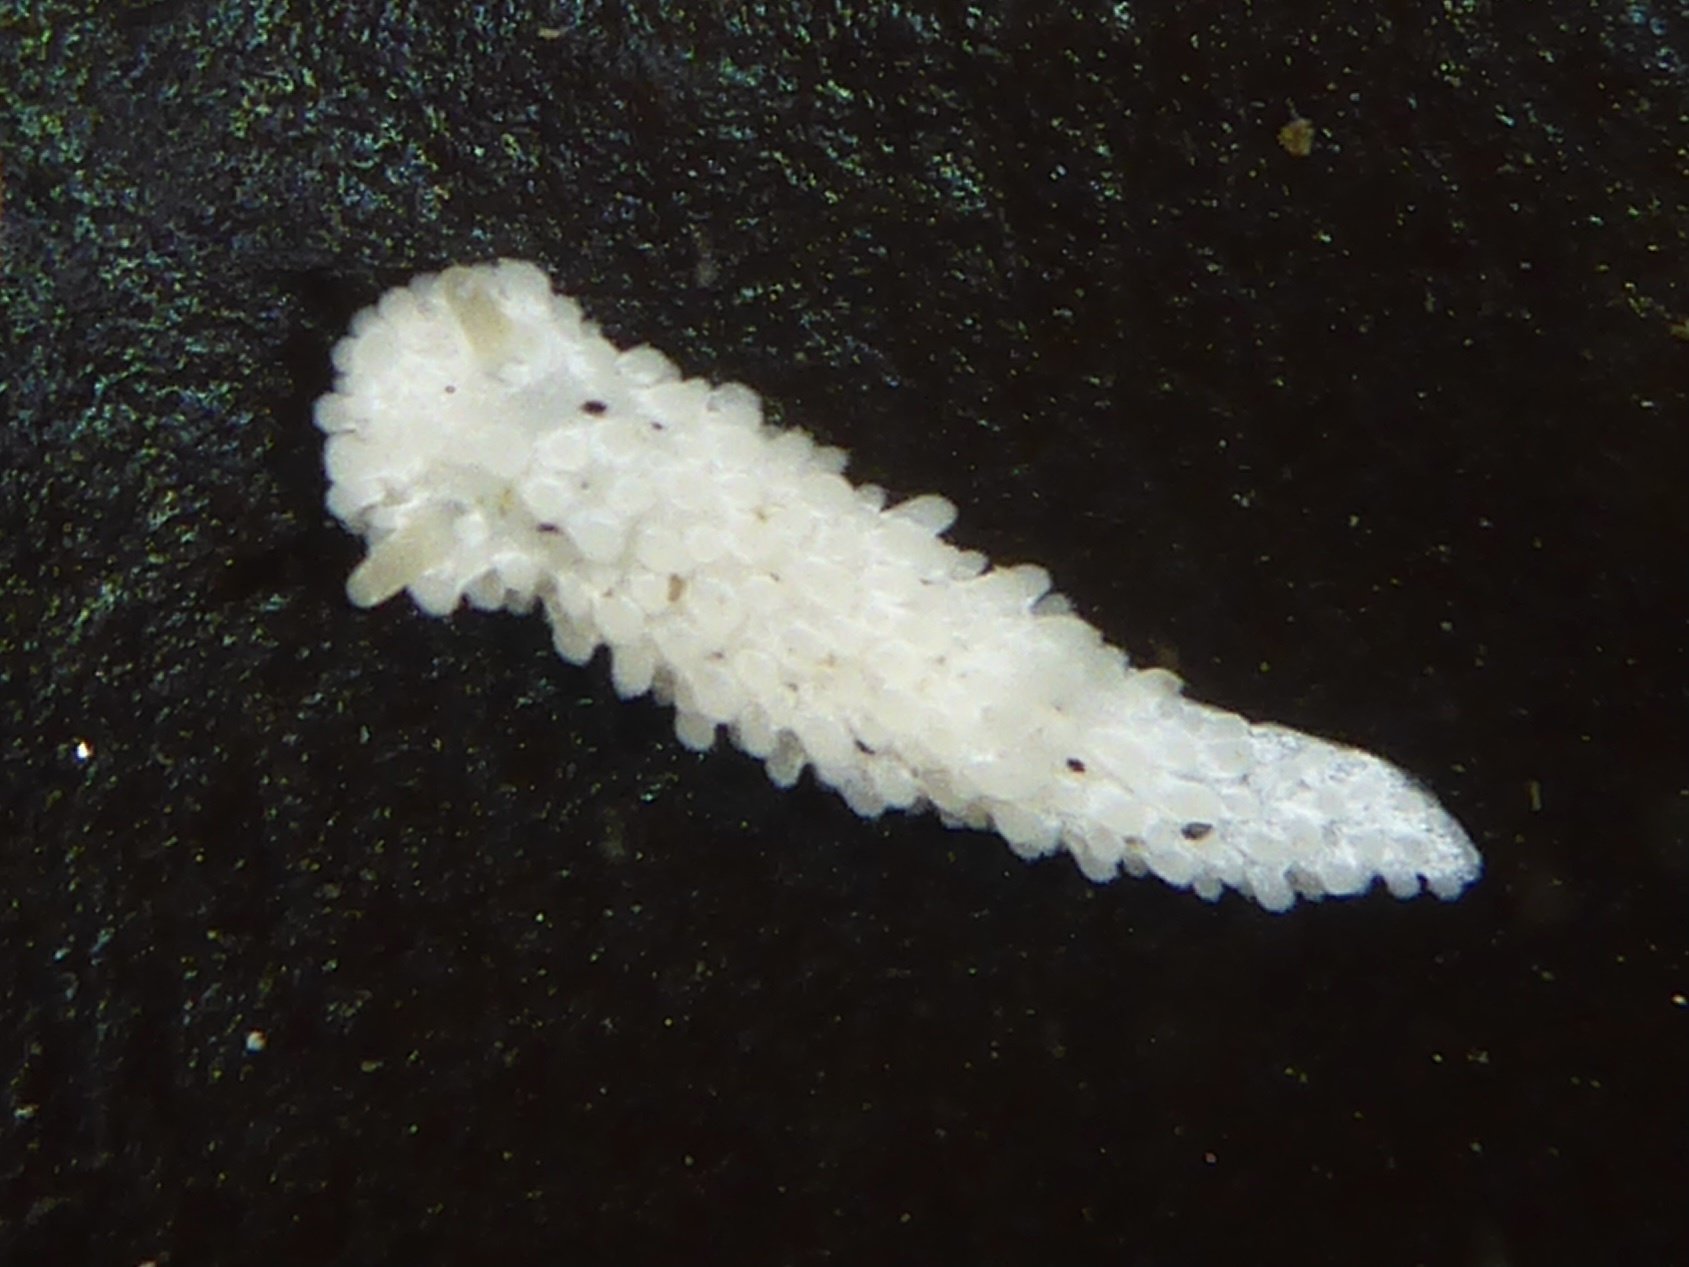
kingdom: Animalia
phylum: Mollusca
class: Gastropoda
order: Nudibranchia
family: Aegiridae
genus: Aegires
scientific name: Aegires albopunctatus
